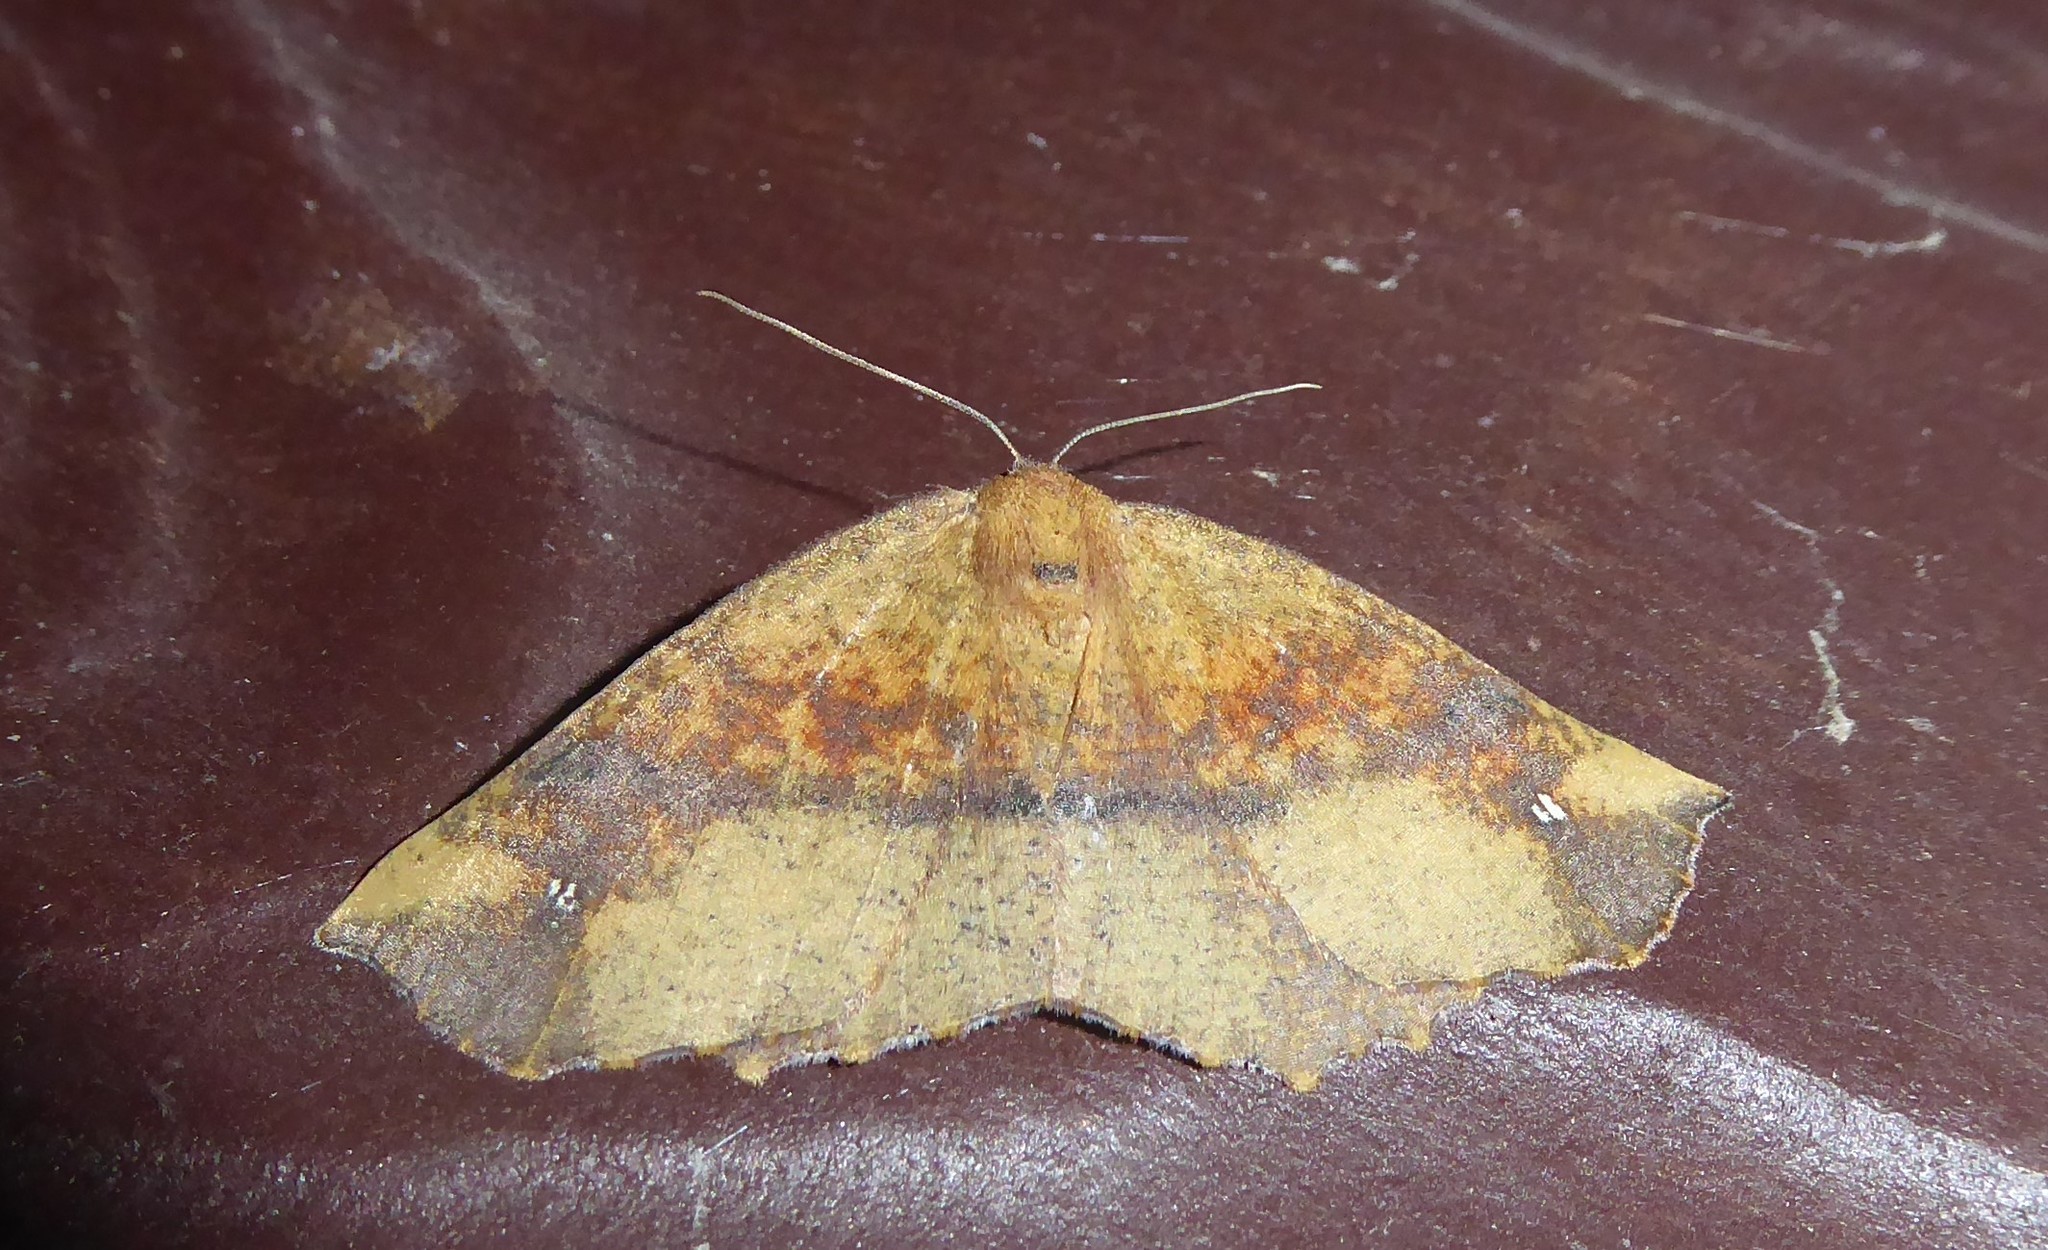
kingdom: Animalia
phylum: Arthropoda
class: Insecta
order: Lepidoptera
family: Geometridae
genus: Xyridacma
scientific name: Xyridacma ustaria
